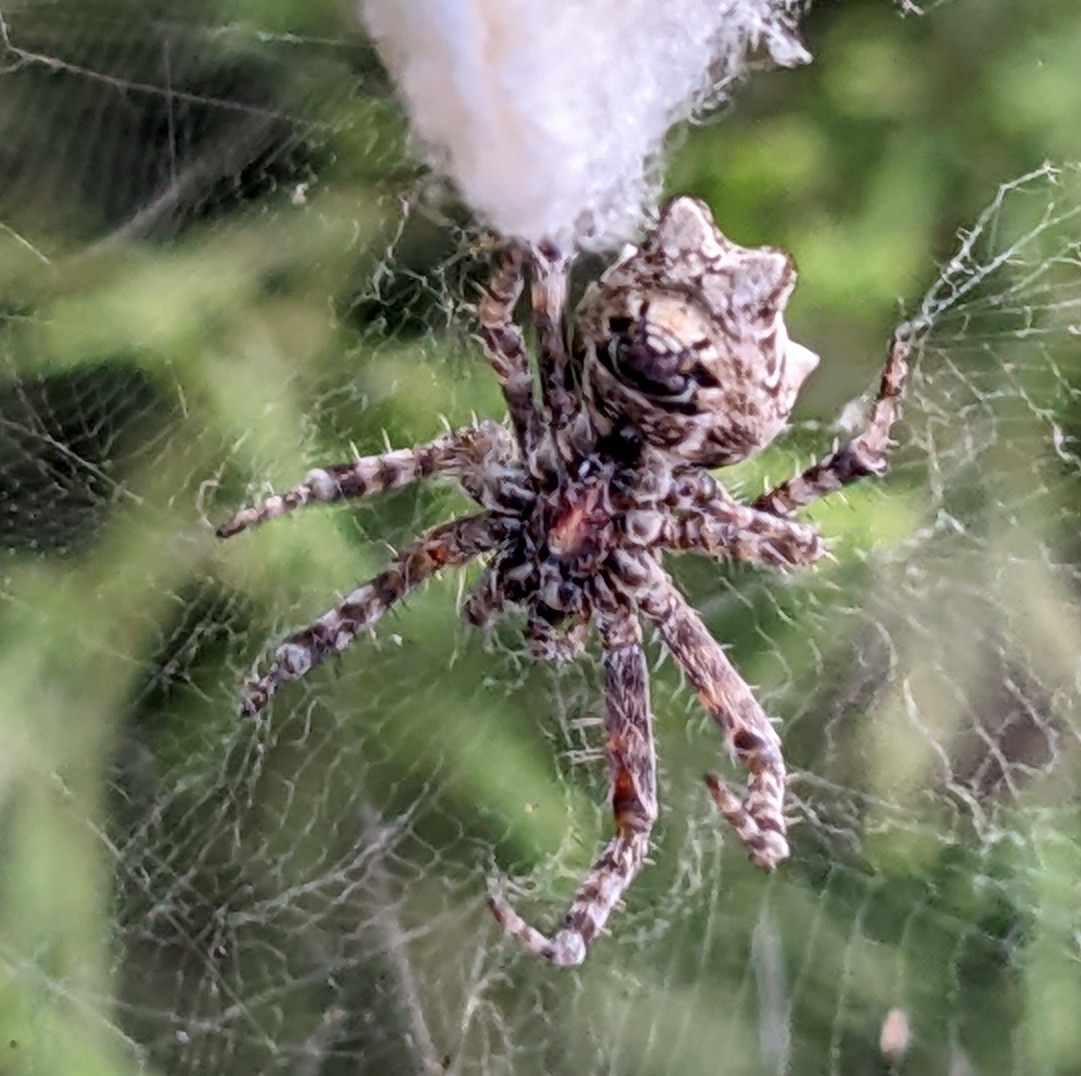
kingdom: Animalia
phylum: Arthropoda
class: Arachnida
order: Araneae
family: Araneidae
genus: Cyrtophora
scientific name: Cyrtophora citricola
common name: Orb weavers
